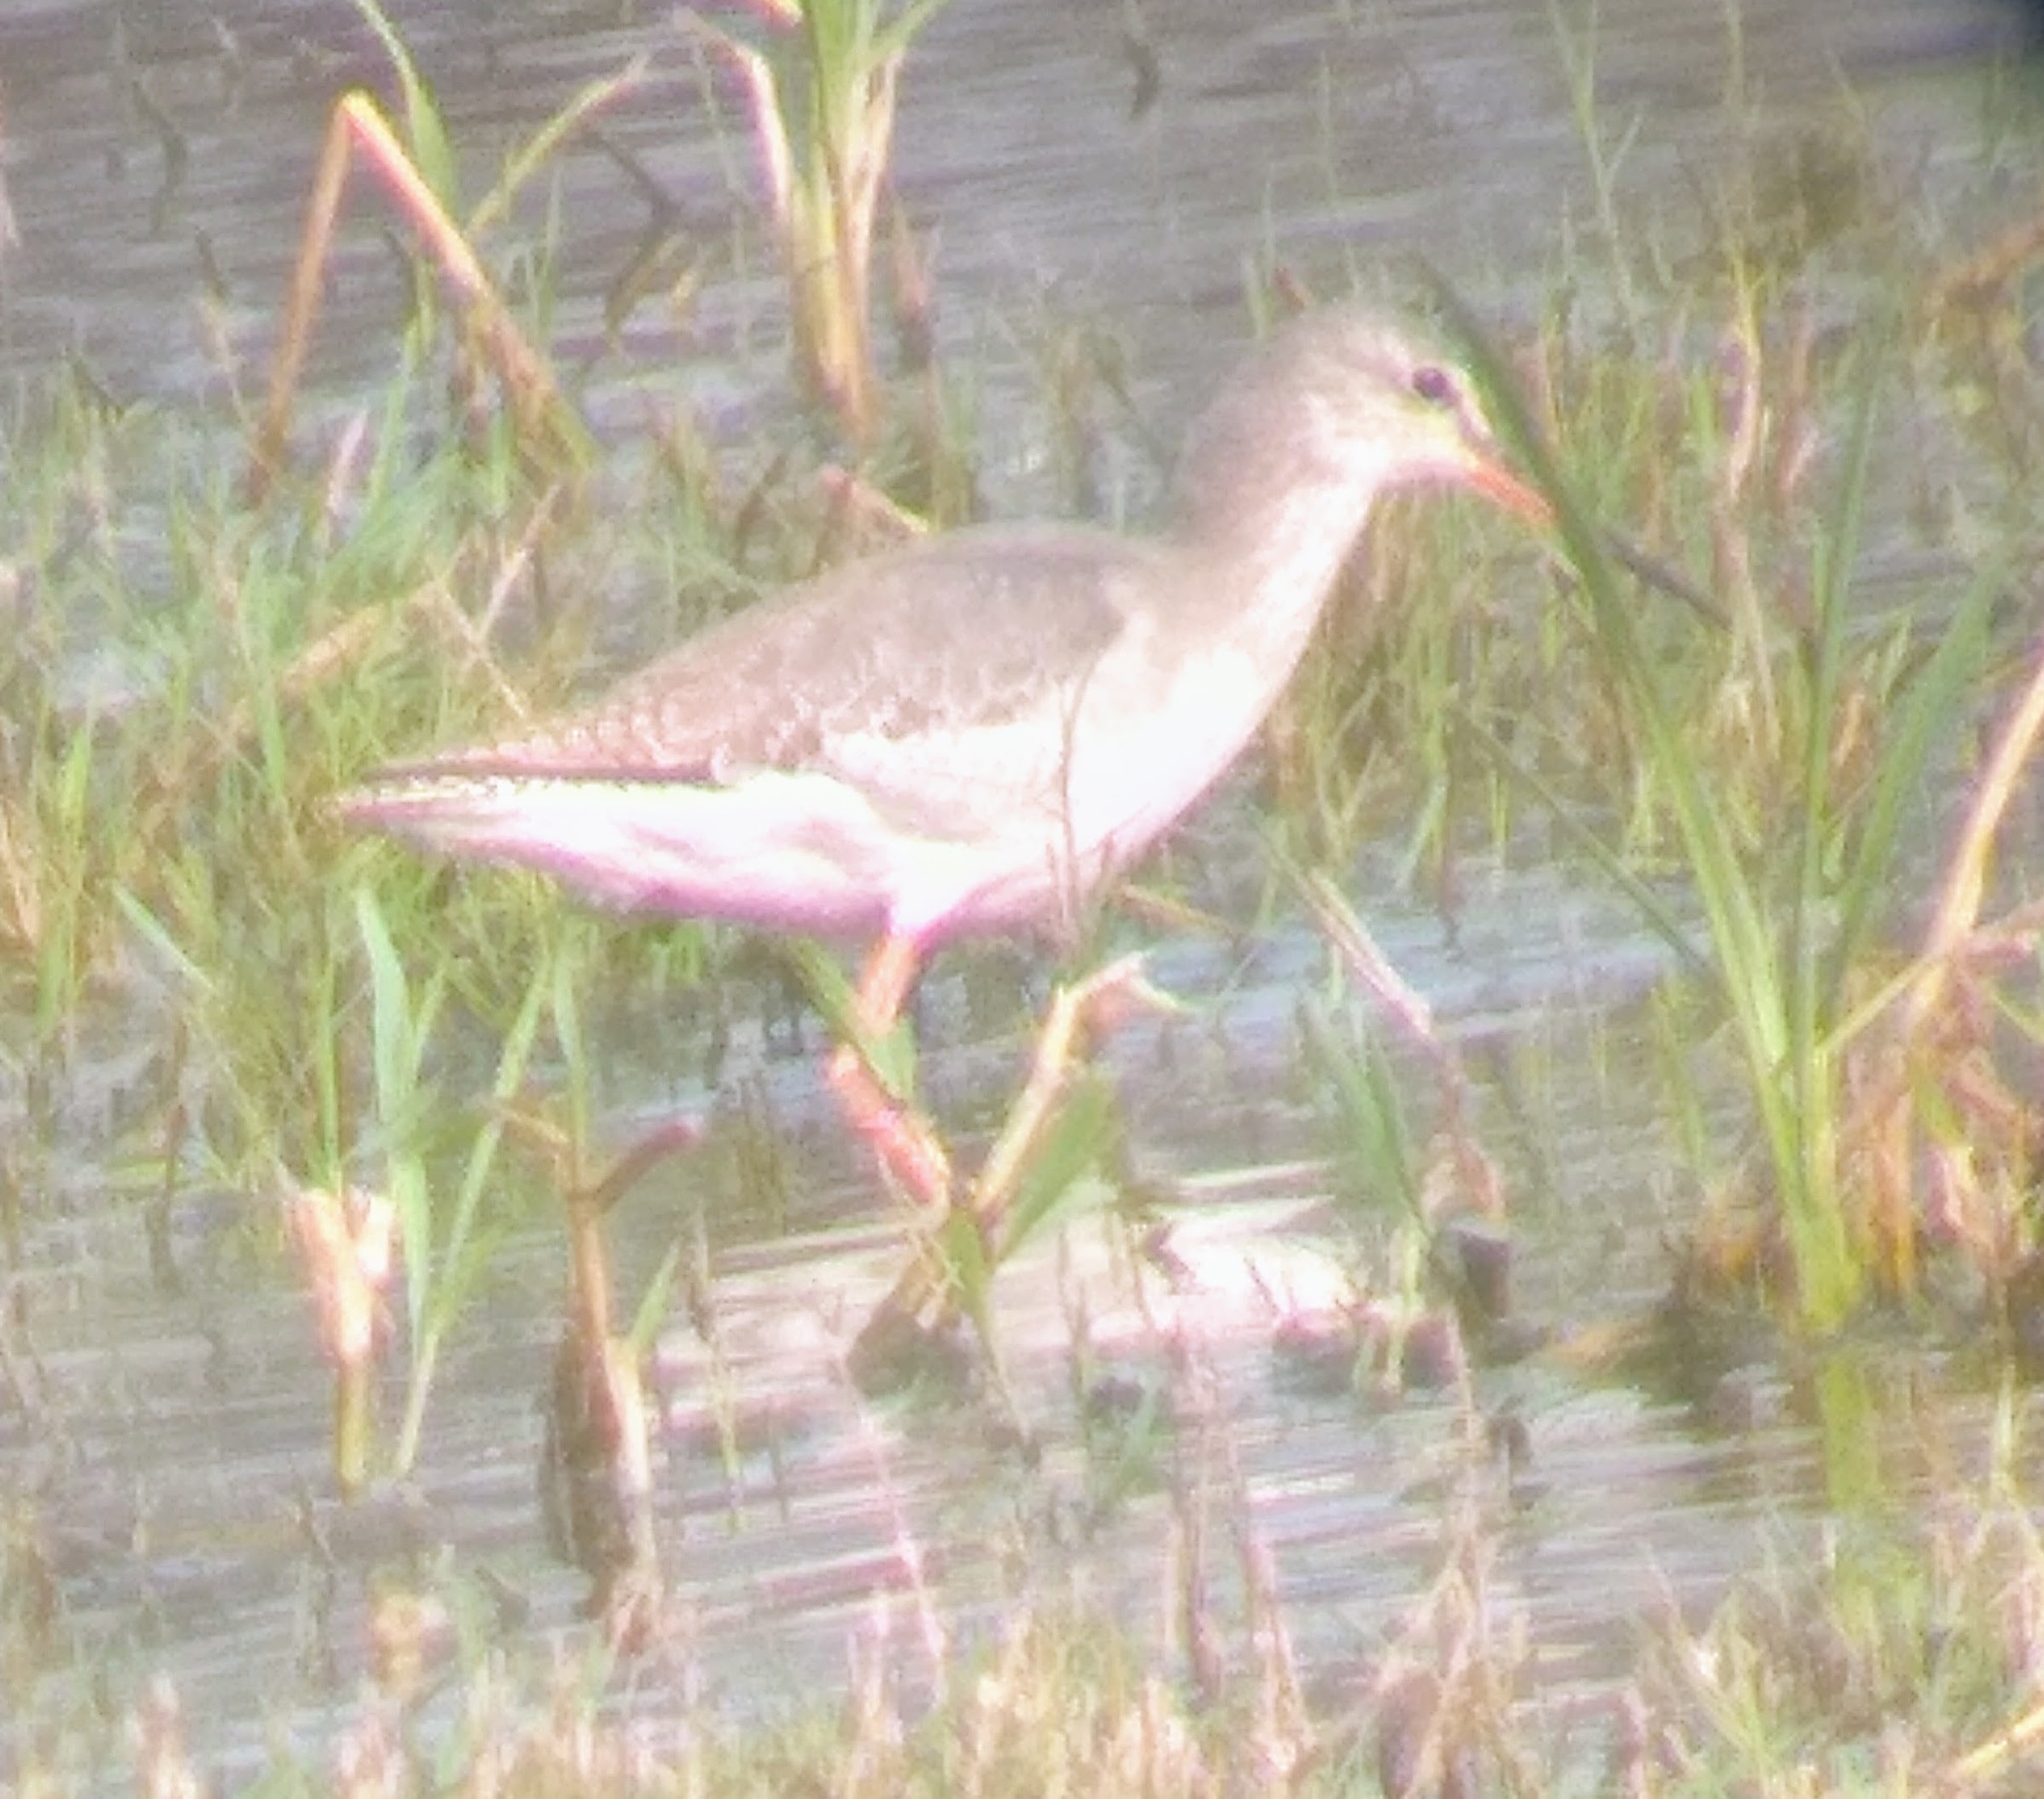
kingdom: Animalia
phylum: Chordata
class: Aves
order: Charadriiformes
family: Scolopacidae
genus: Tringa
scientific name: Tringa totanus
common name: Common redshank
